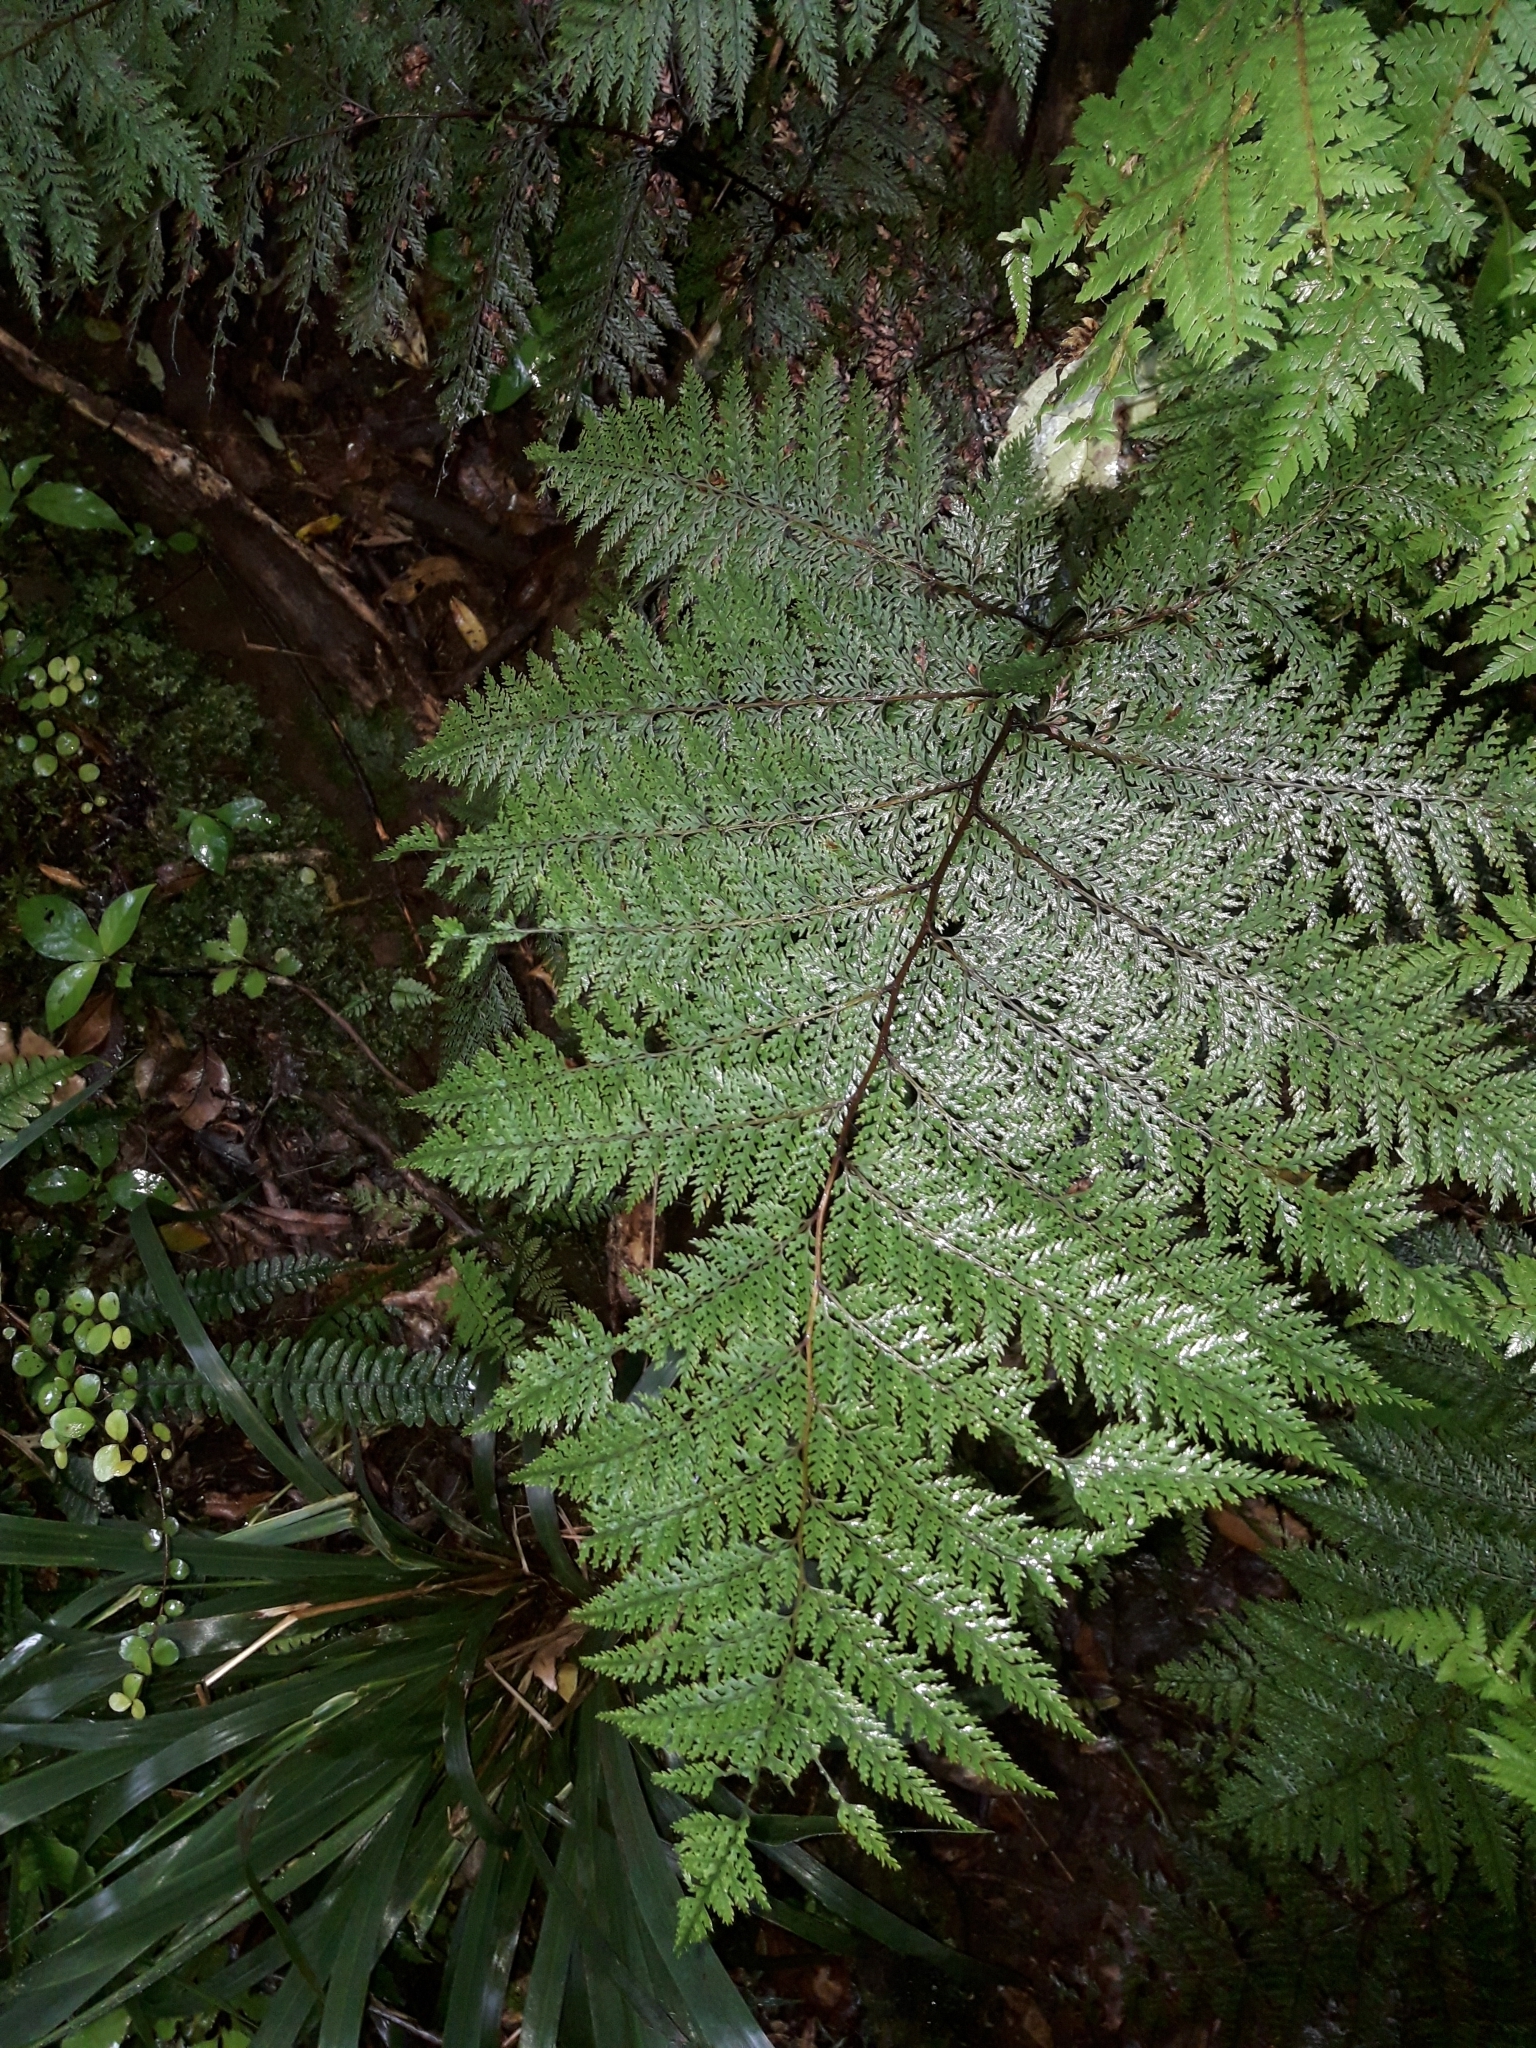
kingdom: Plantae
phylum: Tracheophyta
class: Polypodiopsida
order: Polypodiales
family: Dennstaedtiaceae
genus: Dennstaedtia
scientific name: Dennstaedtia novae-zelandiae
